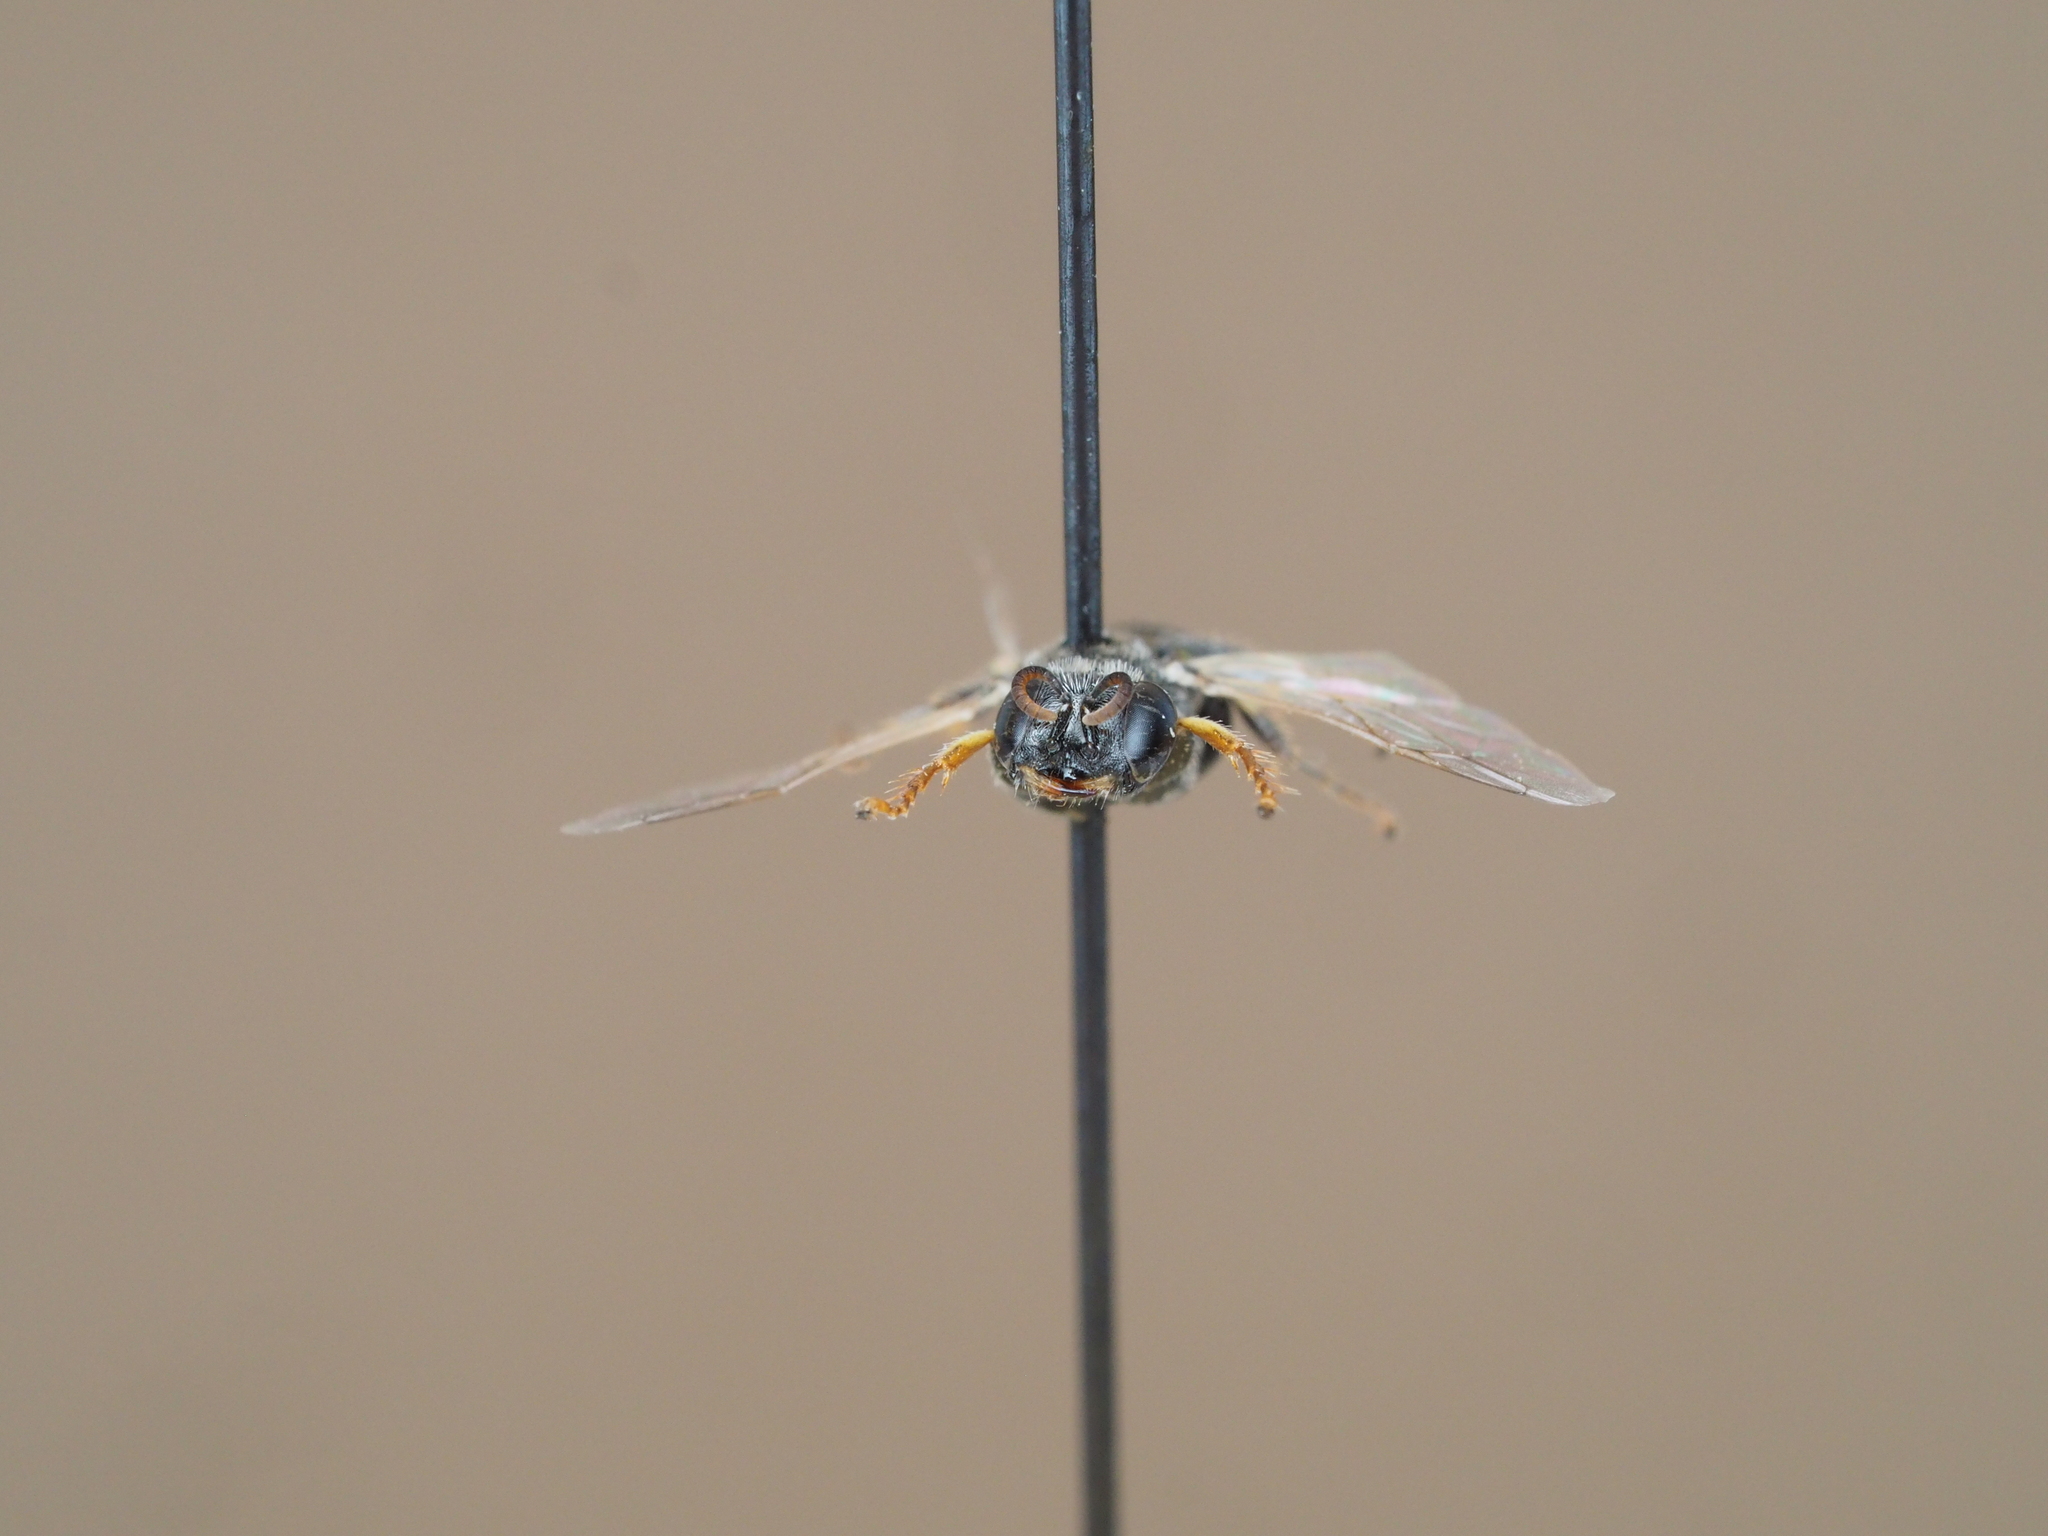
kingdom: Animalia
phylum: Arthropoda
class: Insecta
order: Hymenoptera
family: Crabronidae
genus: Oxybelus
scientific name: Oxybelus bipunctatus
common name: Square-headed wasp
